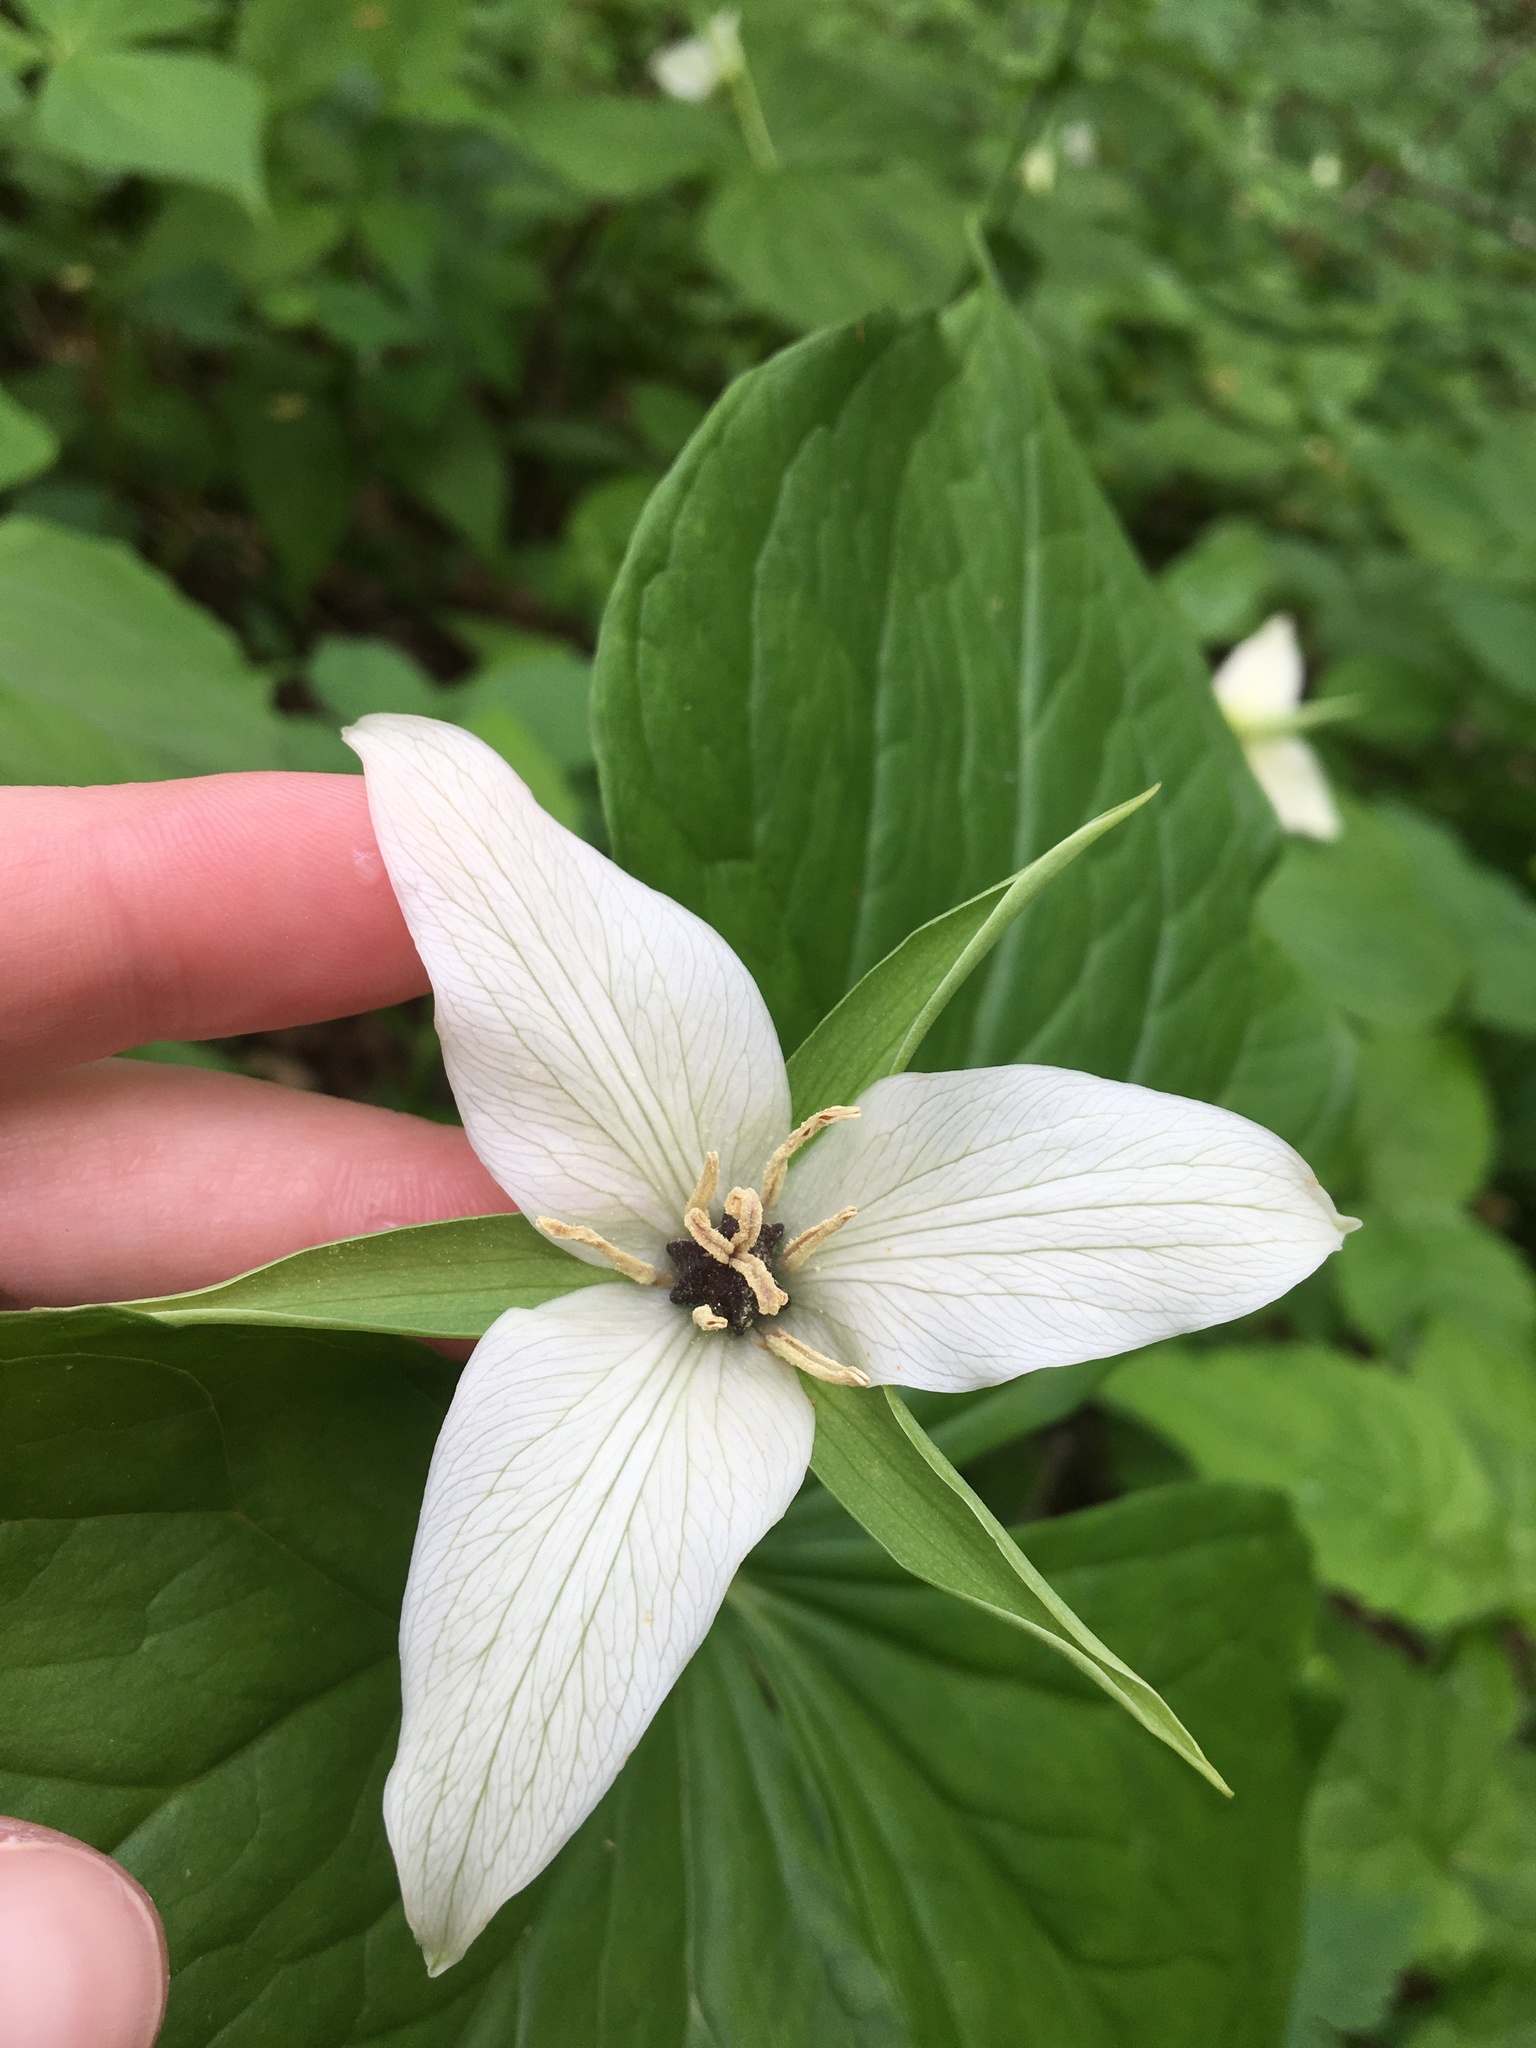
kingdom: Plantae
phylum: Tracheophyta
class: Liliopsida
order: Liliales
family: Melanthiaceae
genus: Trillium
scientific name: Trillium erectum
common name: Purple trillium
